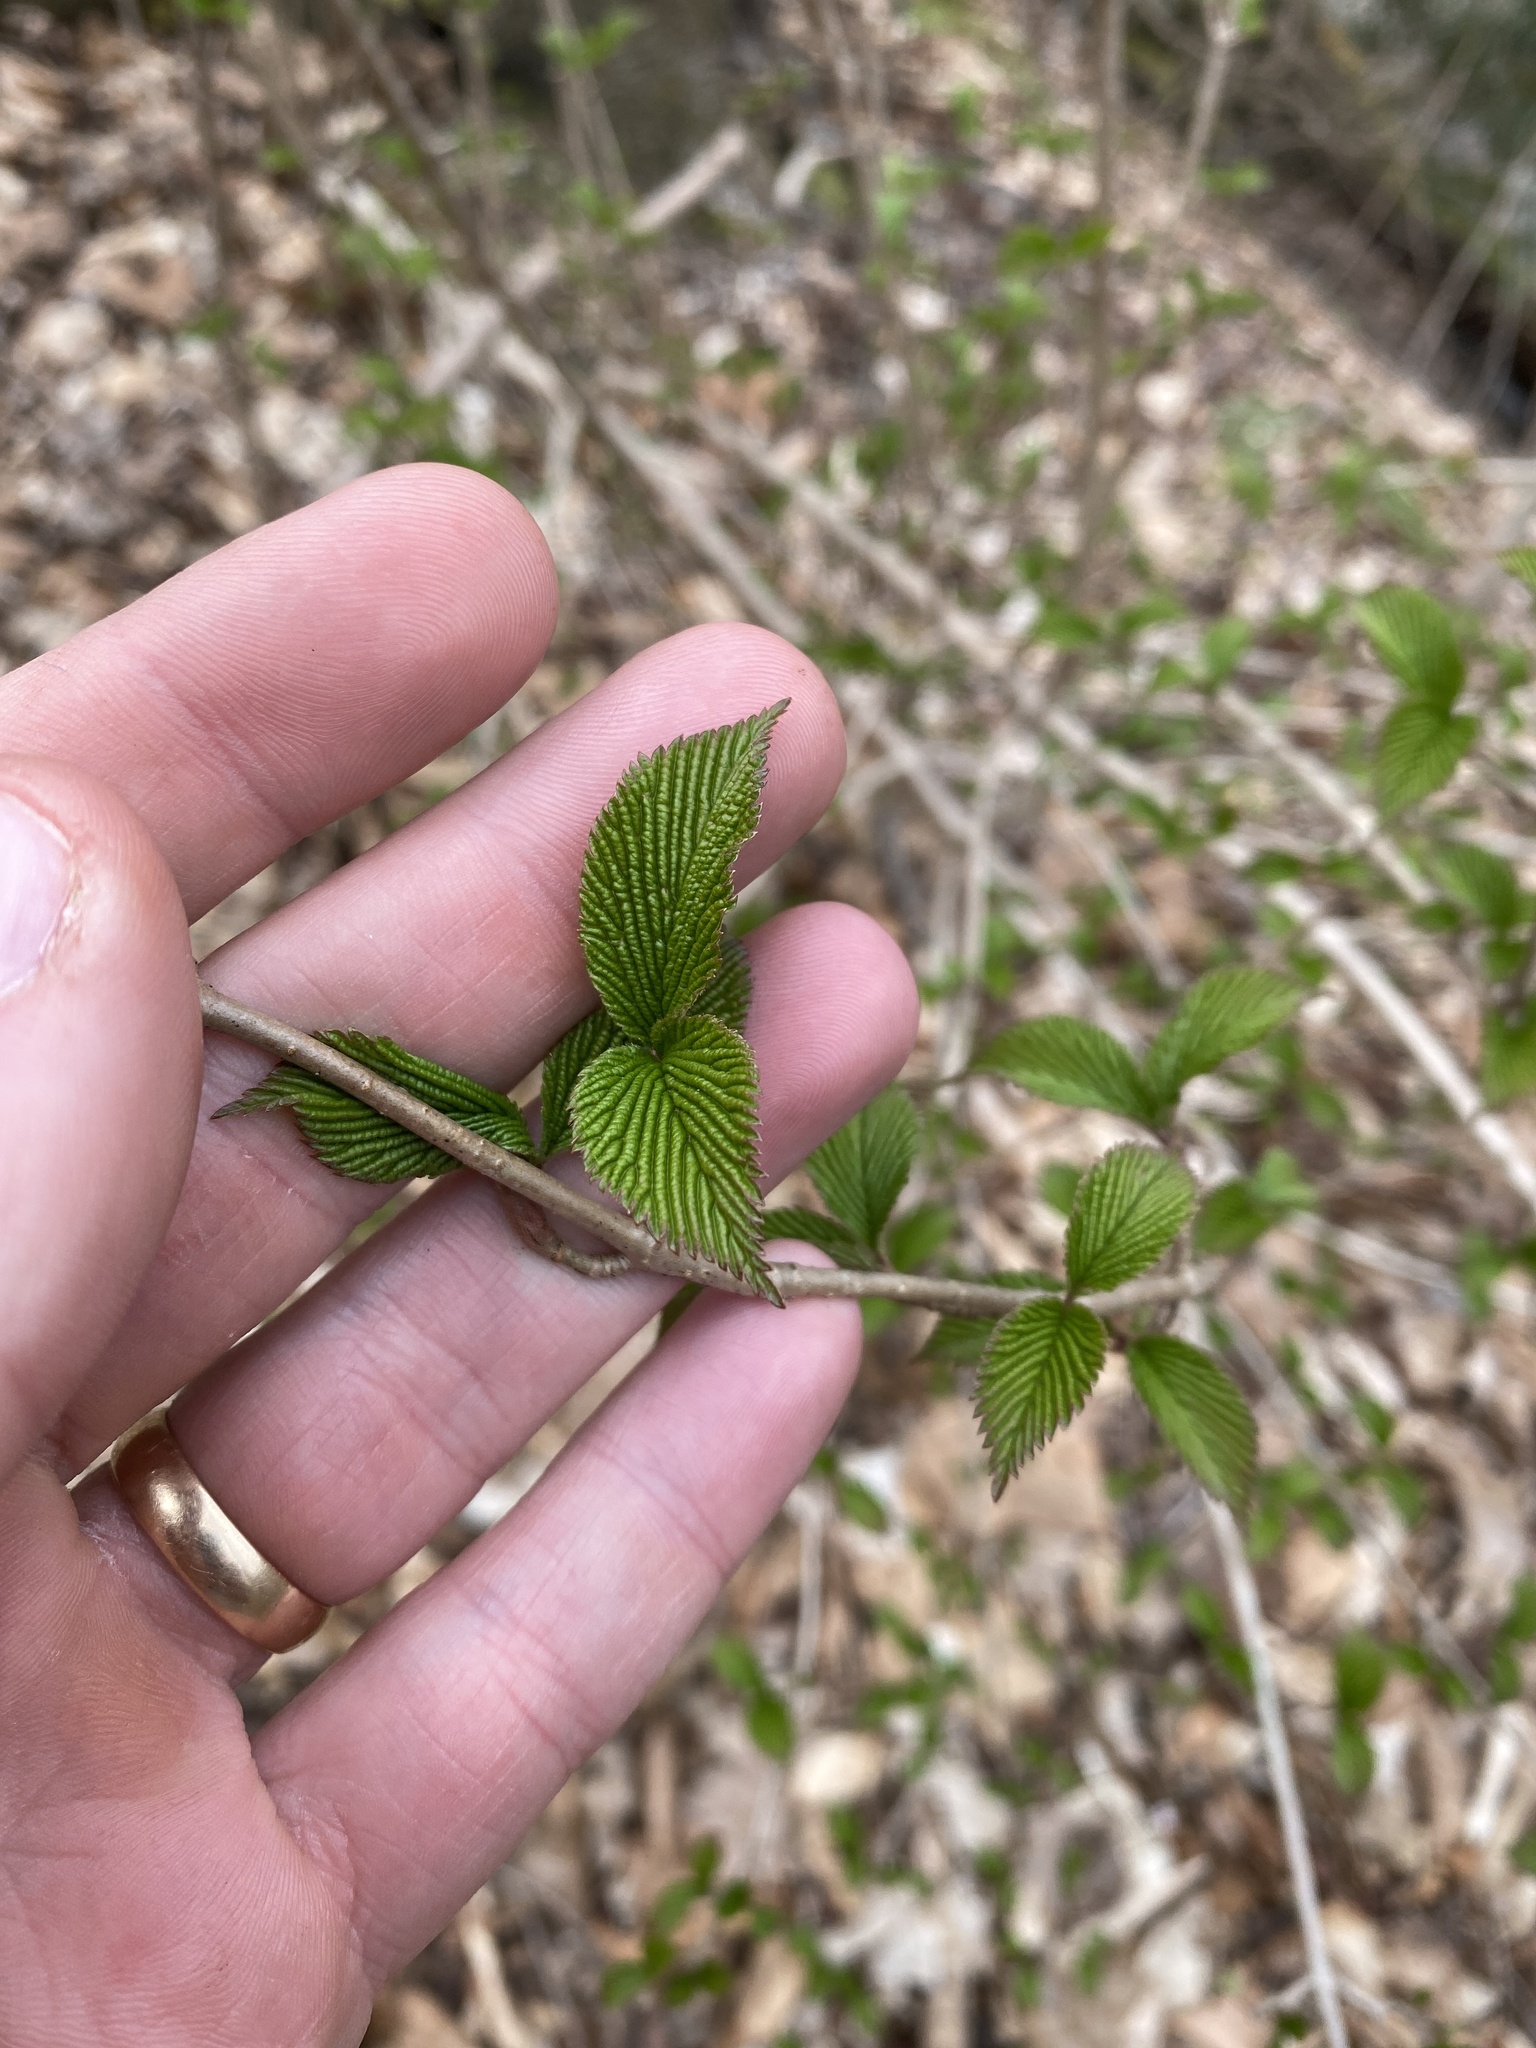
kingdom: Plantae
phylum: Tracheophyta
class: Magnoliopsida
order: Dipsacales
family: Viburnaceae
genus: Viburnum
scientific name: Viburnum plicatum
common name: Japanese snowball
